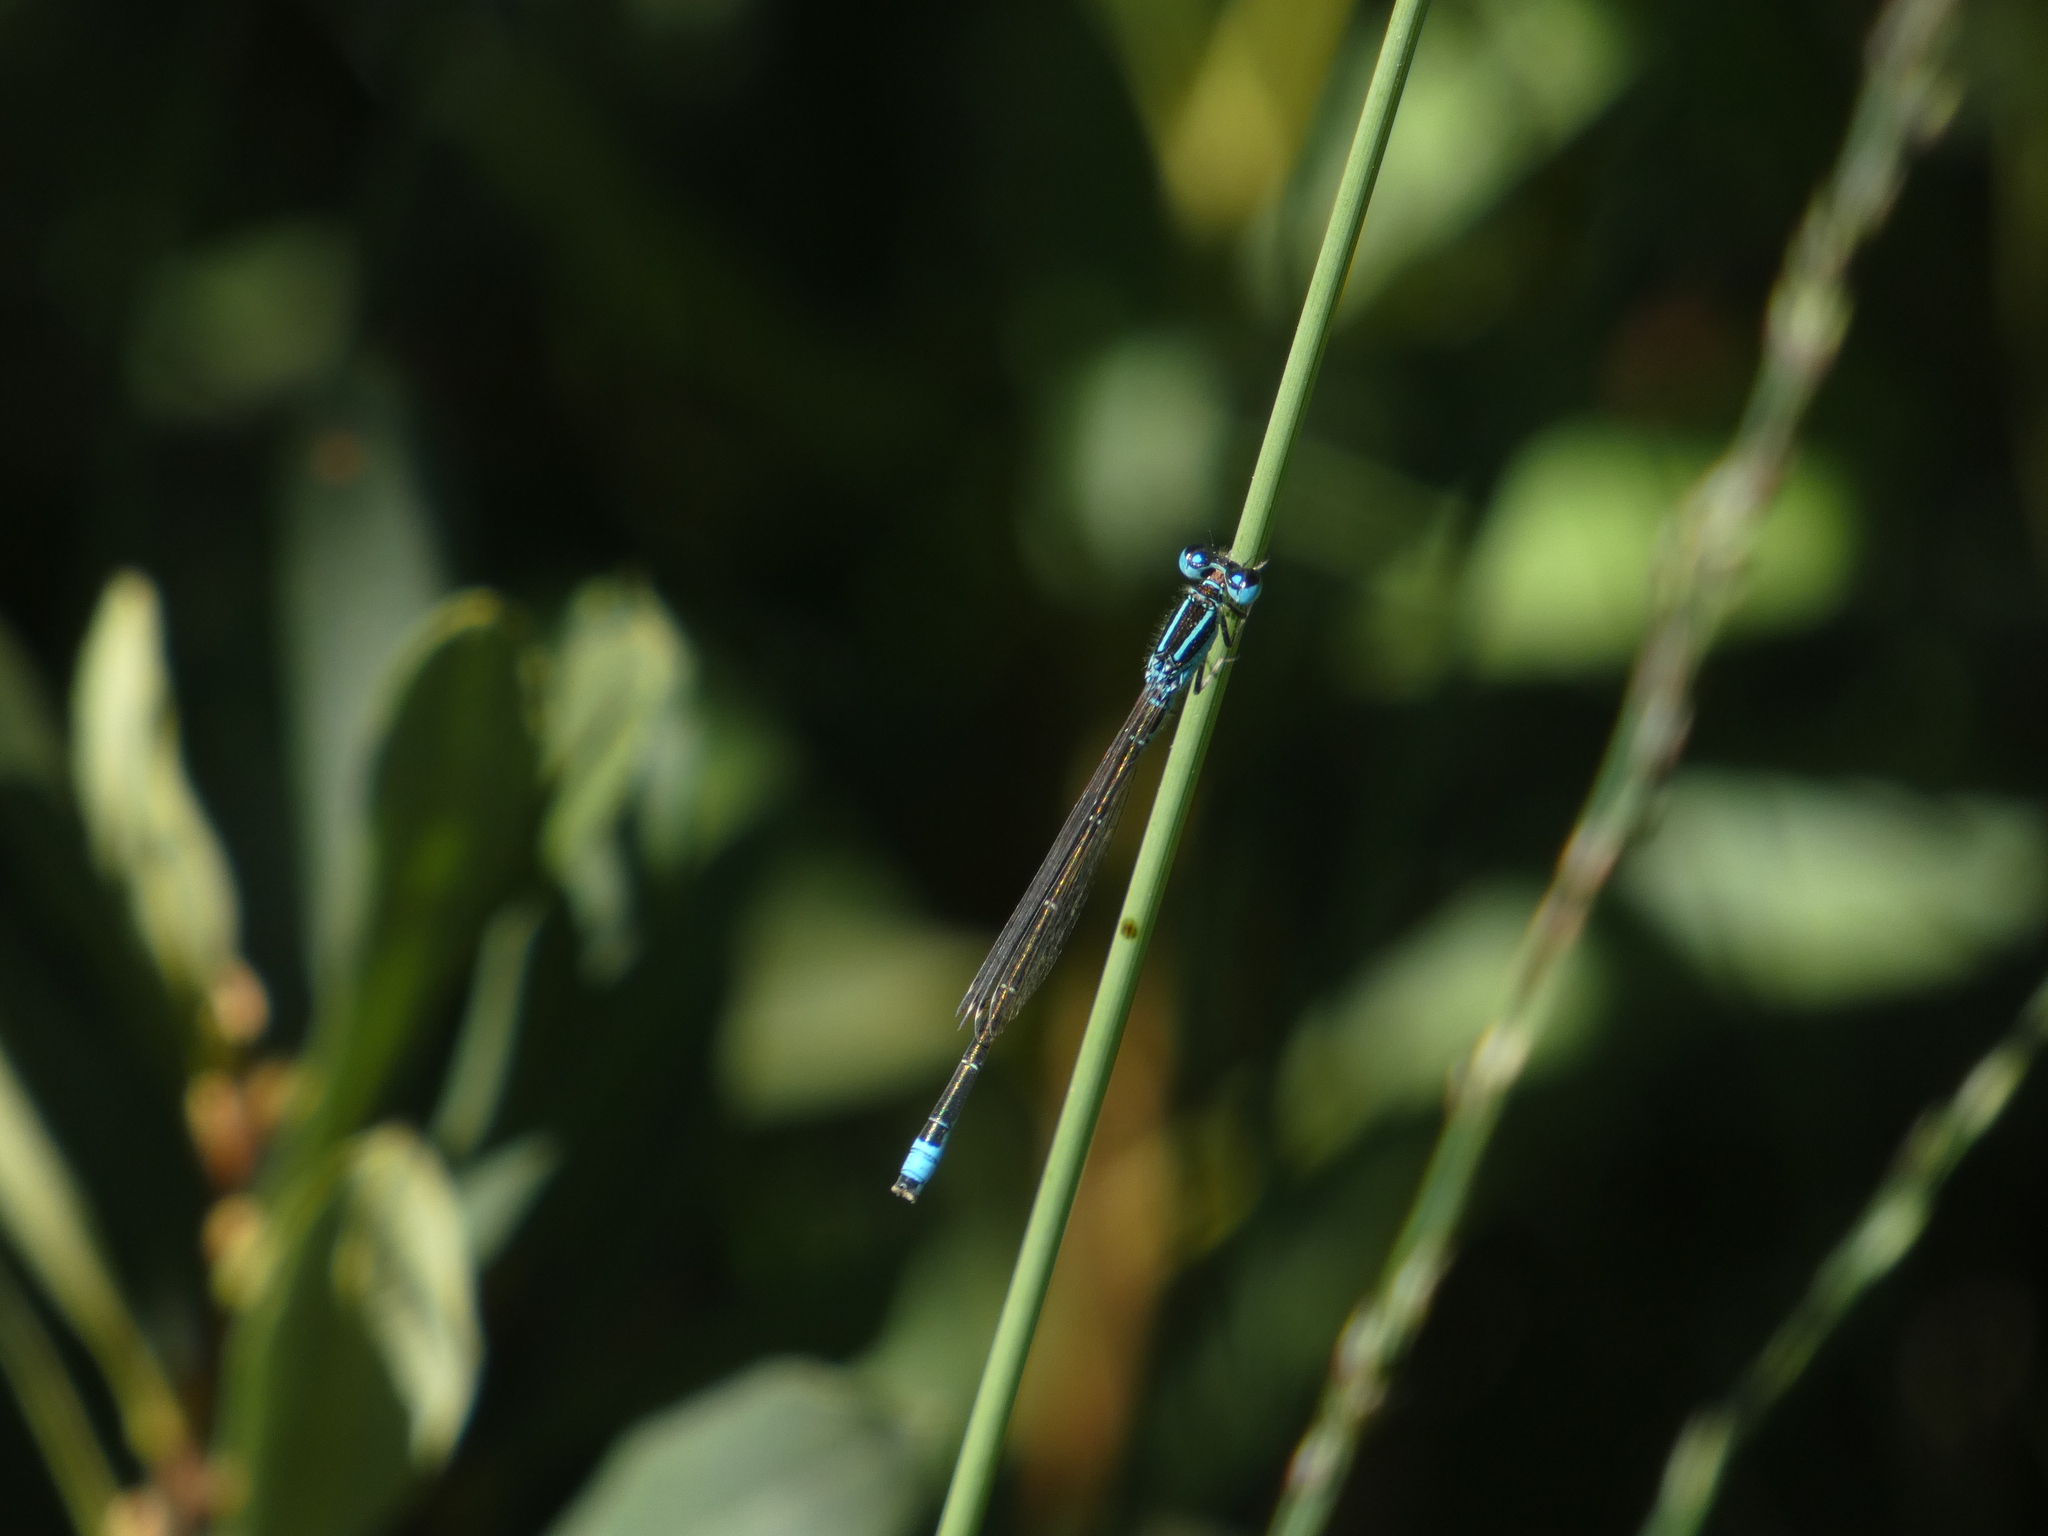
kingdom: Animalia
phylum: Arthropoda
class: Insecta
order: Odonata
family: Coenagrionidae
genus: Ischnura
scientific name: Ischnura pumilio
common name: Scarce blue-tailed damselfly
